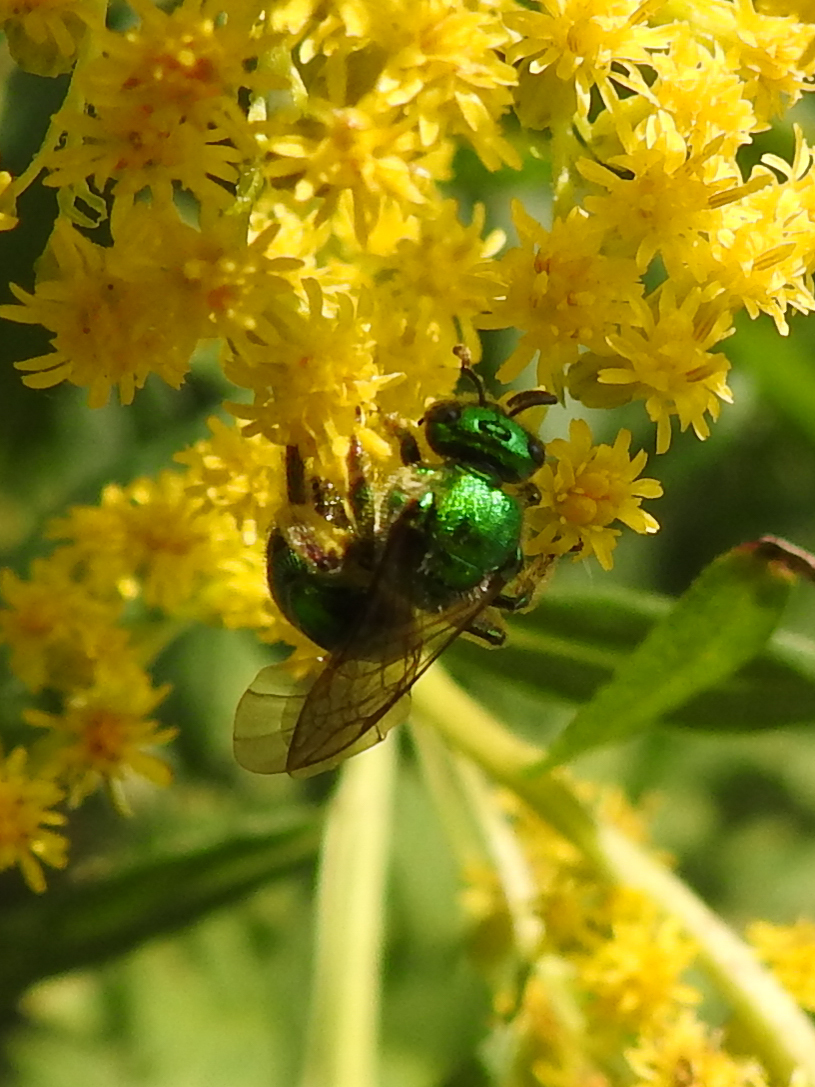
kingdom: Animalia
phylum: Arthropoda
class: Insecta
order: Hymenoptera
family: Halictidae
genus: Augochloropsis
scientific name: Augochloropsis viridula
